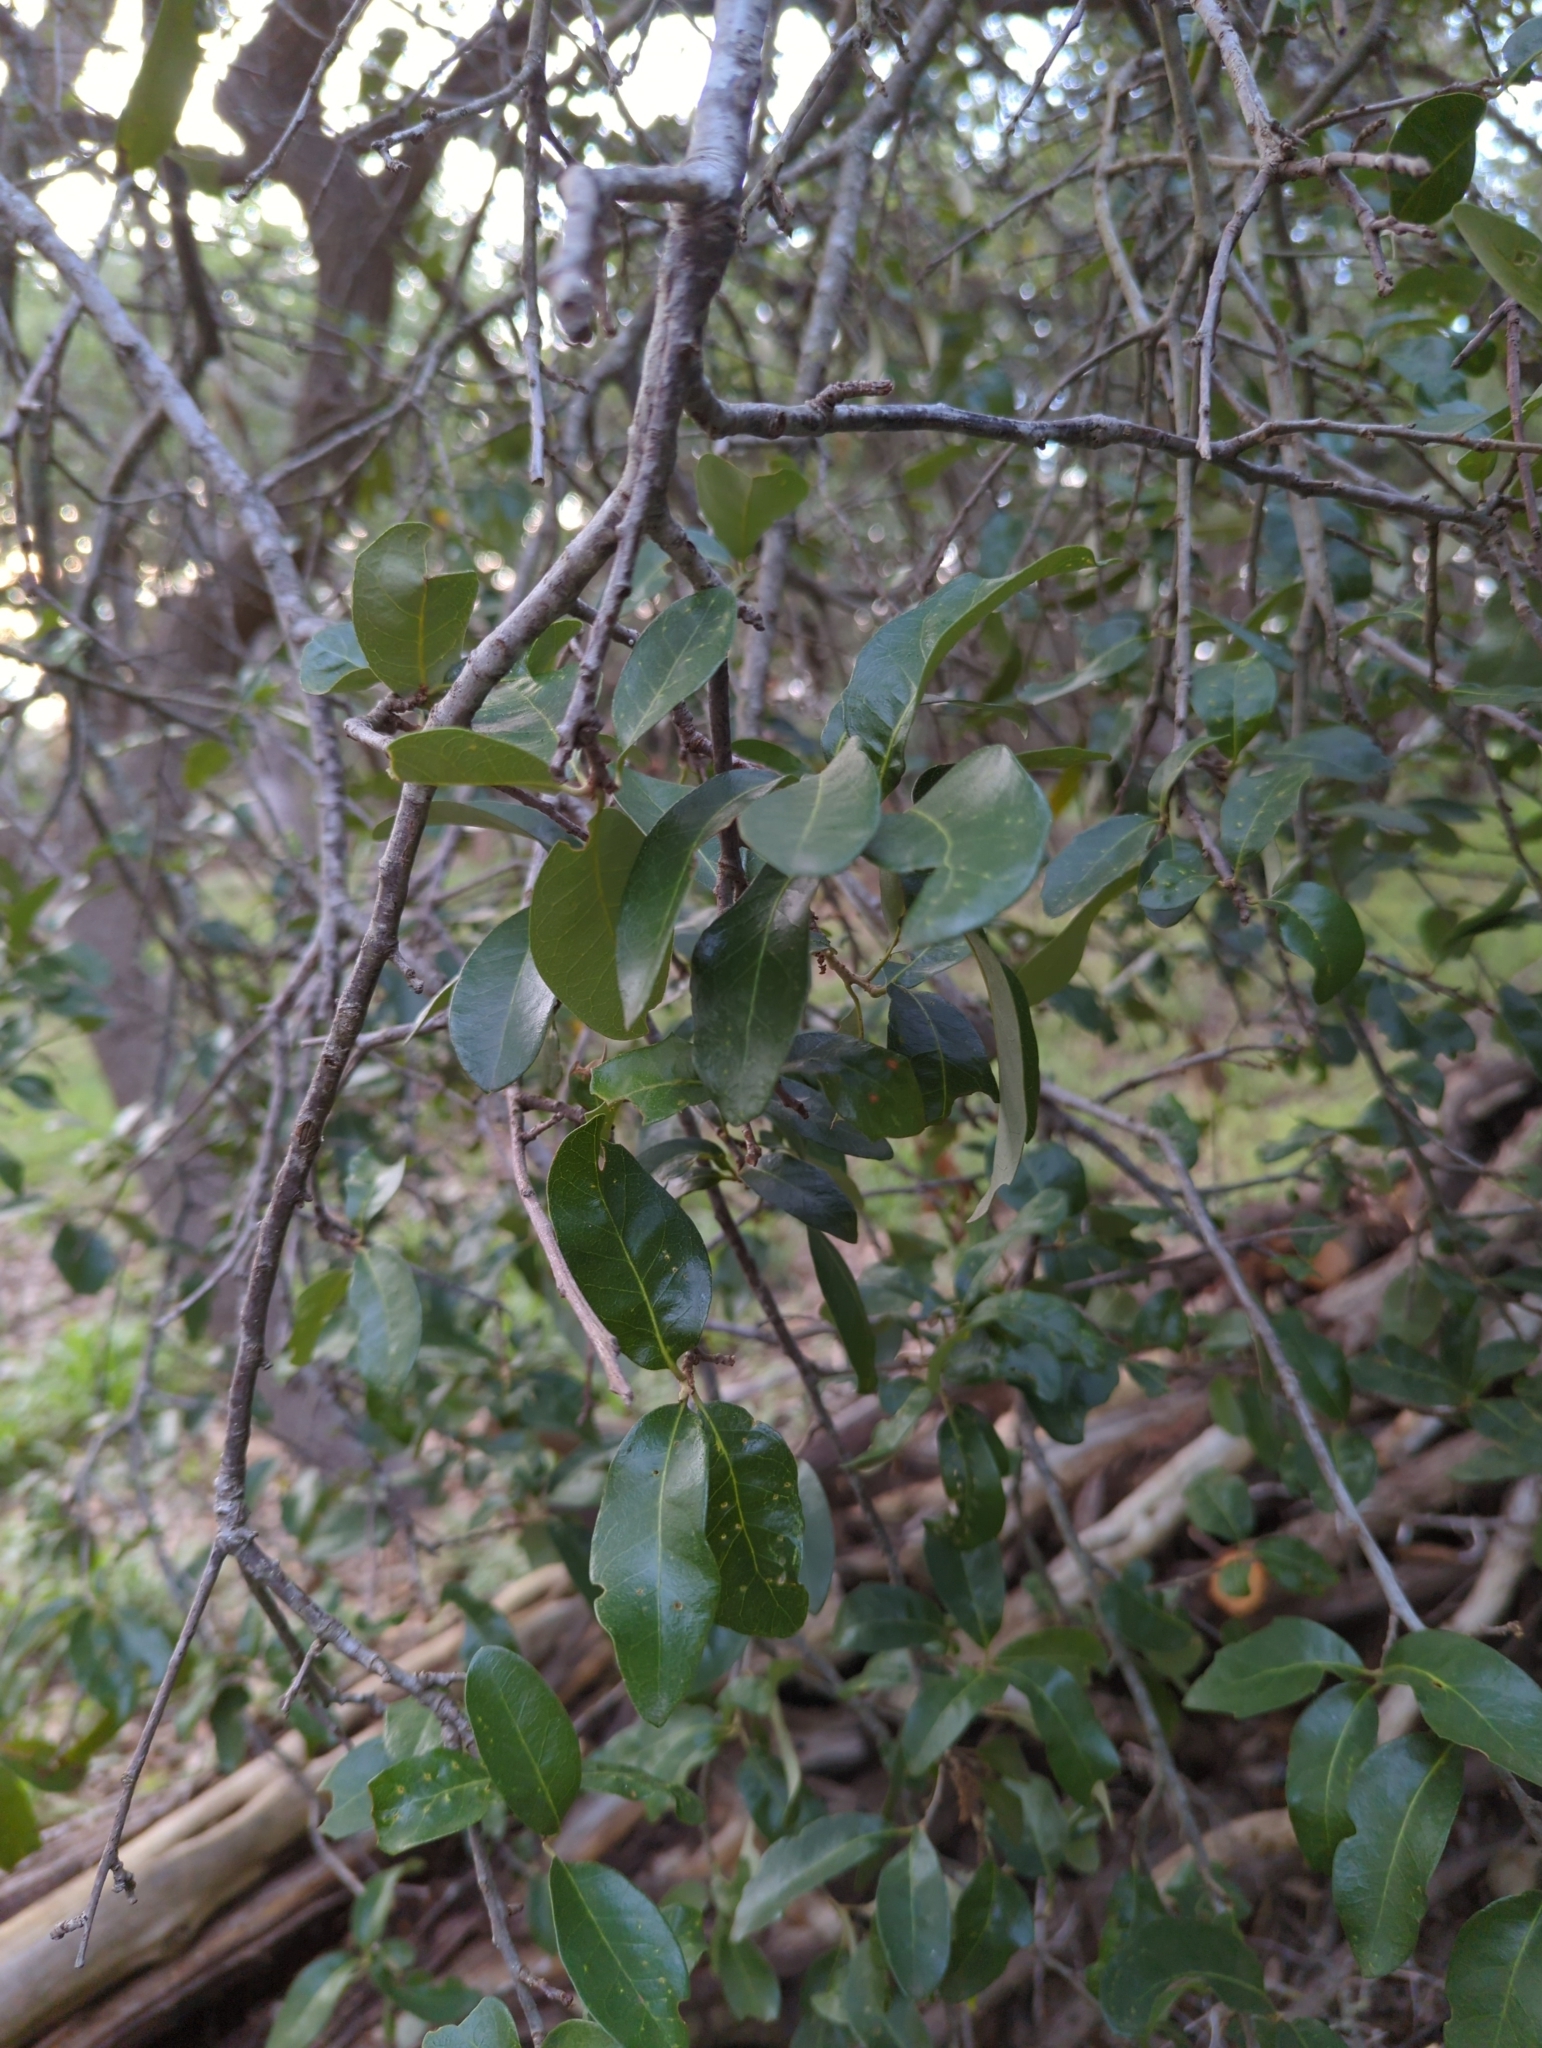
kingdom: Plantae
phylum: Tracheophyta
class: Magnoliopsida
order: Fagales
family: Fagaceae
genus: Quercus
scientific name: Quercus fusiformis
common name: Texas live oak
